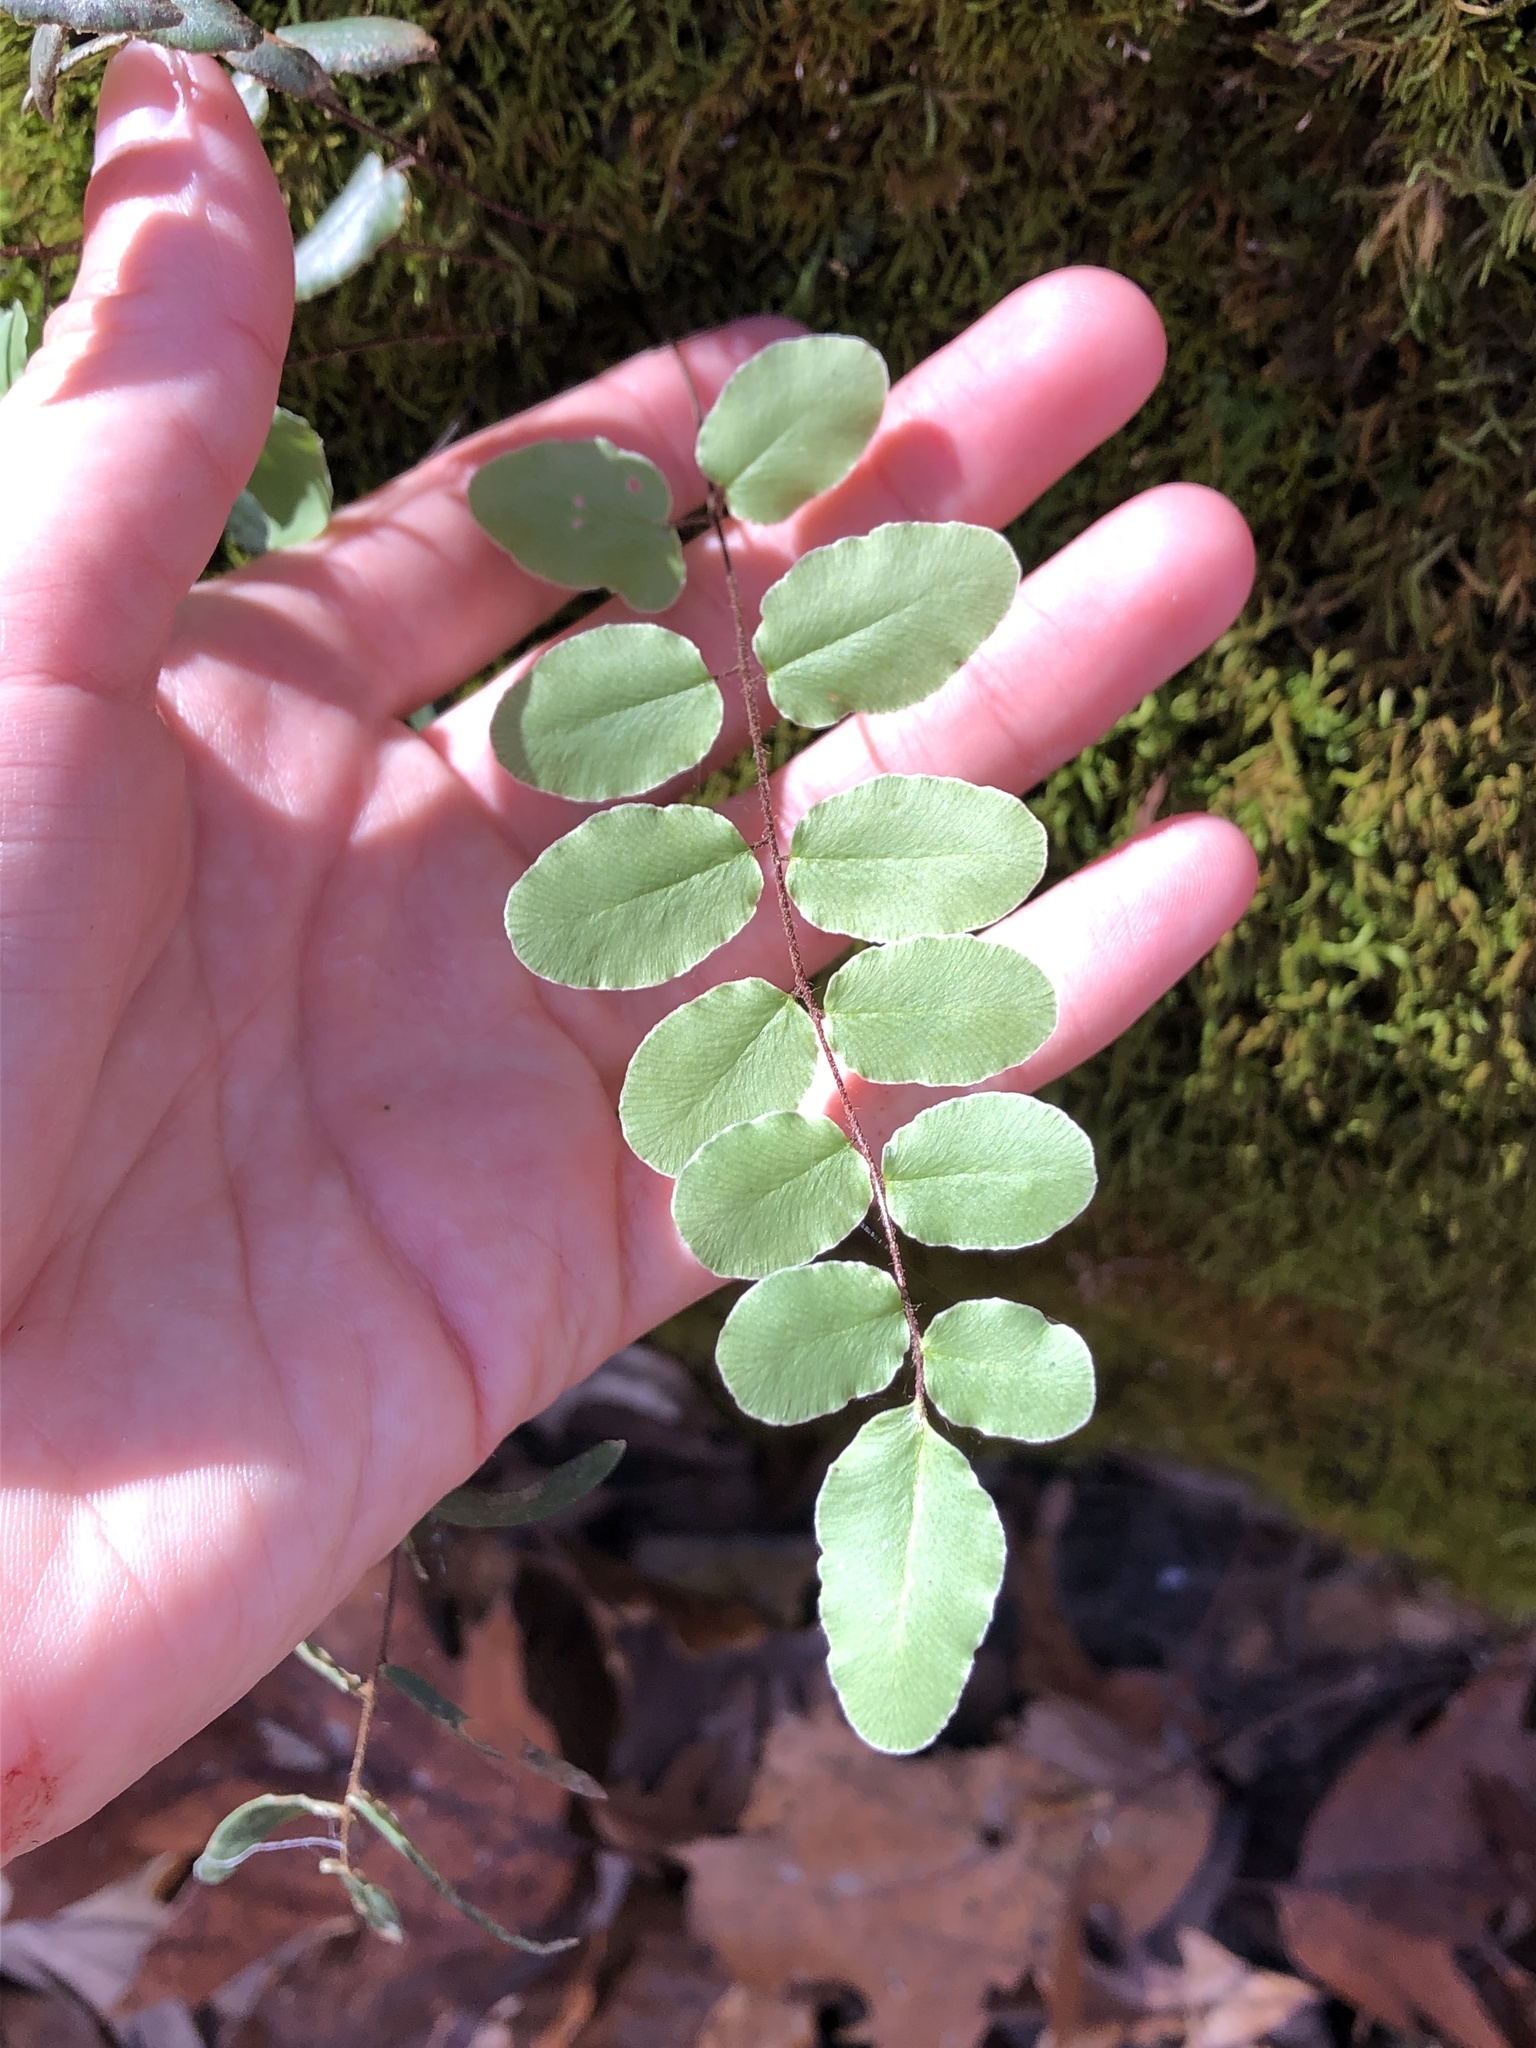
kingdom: Plantae
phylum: Tracheophyta
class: Polypodiopsida
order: Polypodiales
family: Pteridaceae
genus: Pellaea
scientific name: Pellaea atropurpurea
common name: Hairy cliffbrake
